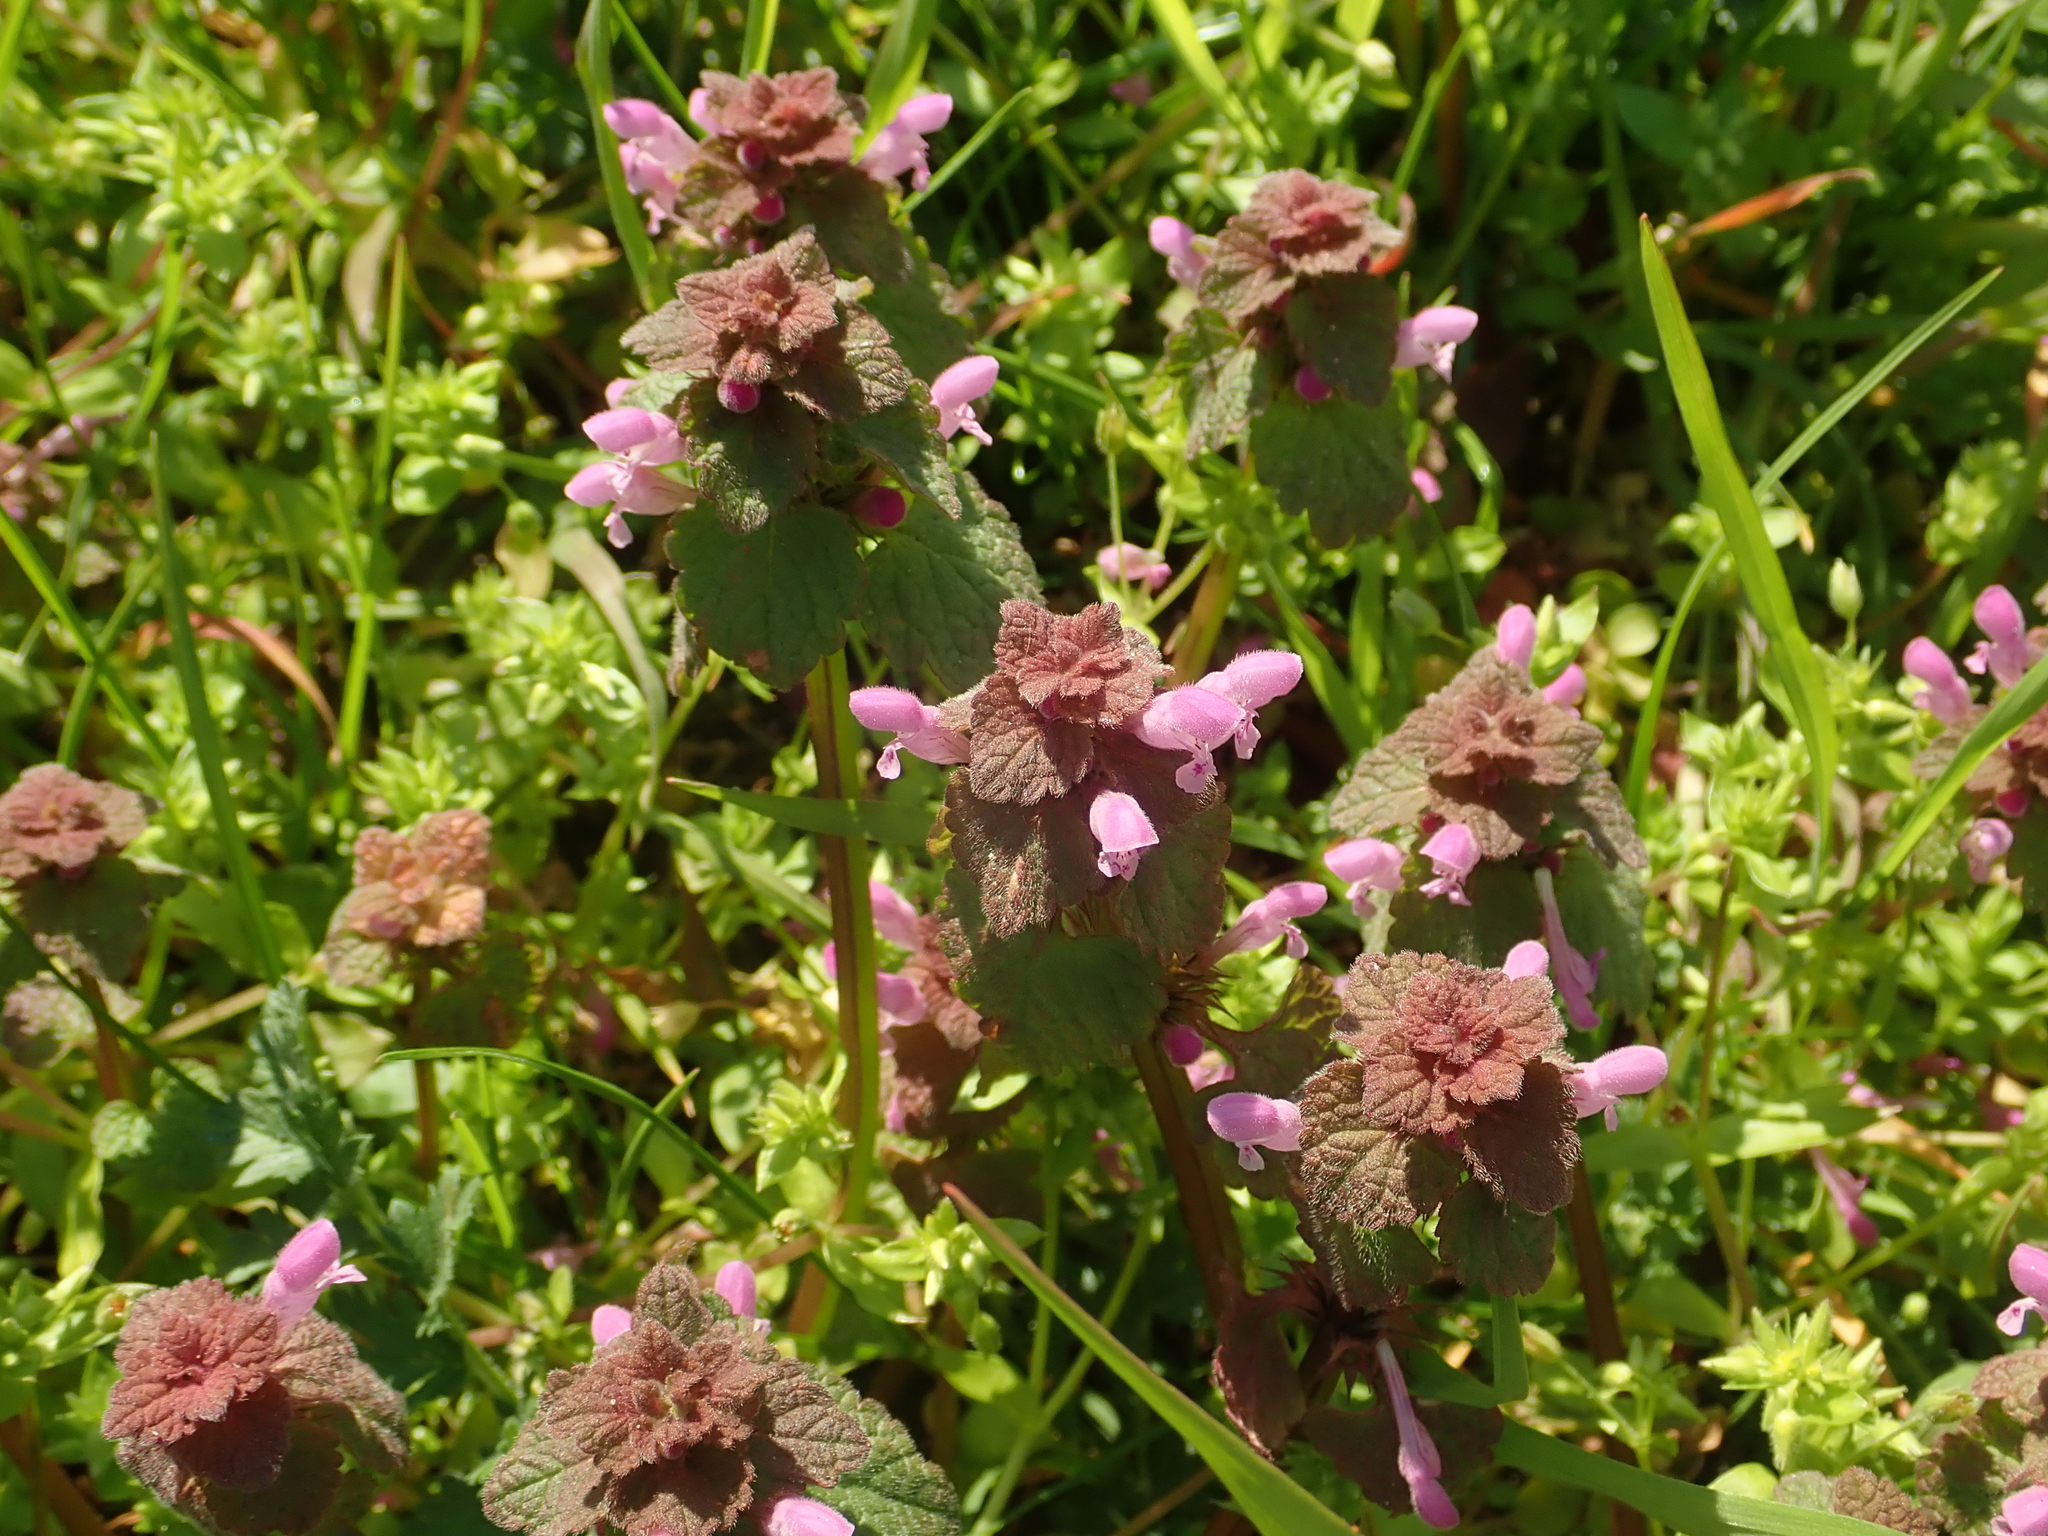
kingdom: Plantae
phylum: Tracheophyta
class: Magnoliopsida
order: Lamiales
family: Lamiaceae
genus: Lamium
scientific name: Lamium purpureum
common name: Red dead-nettle
